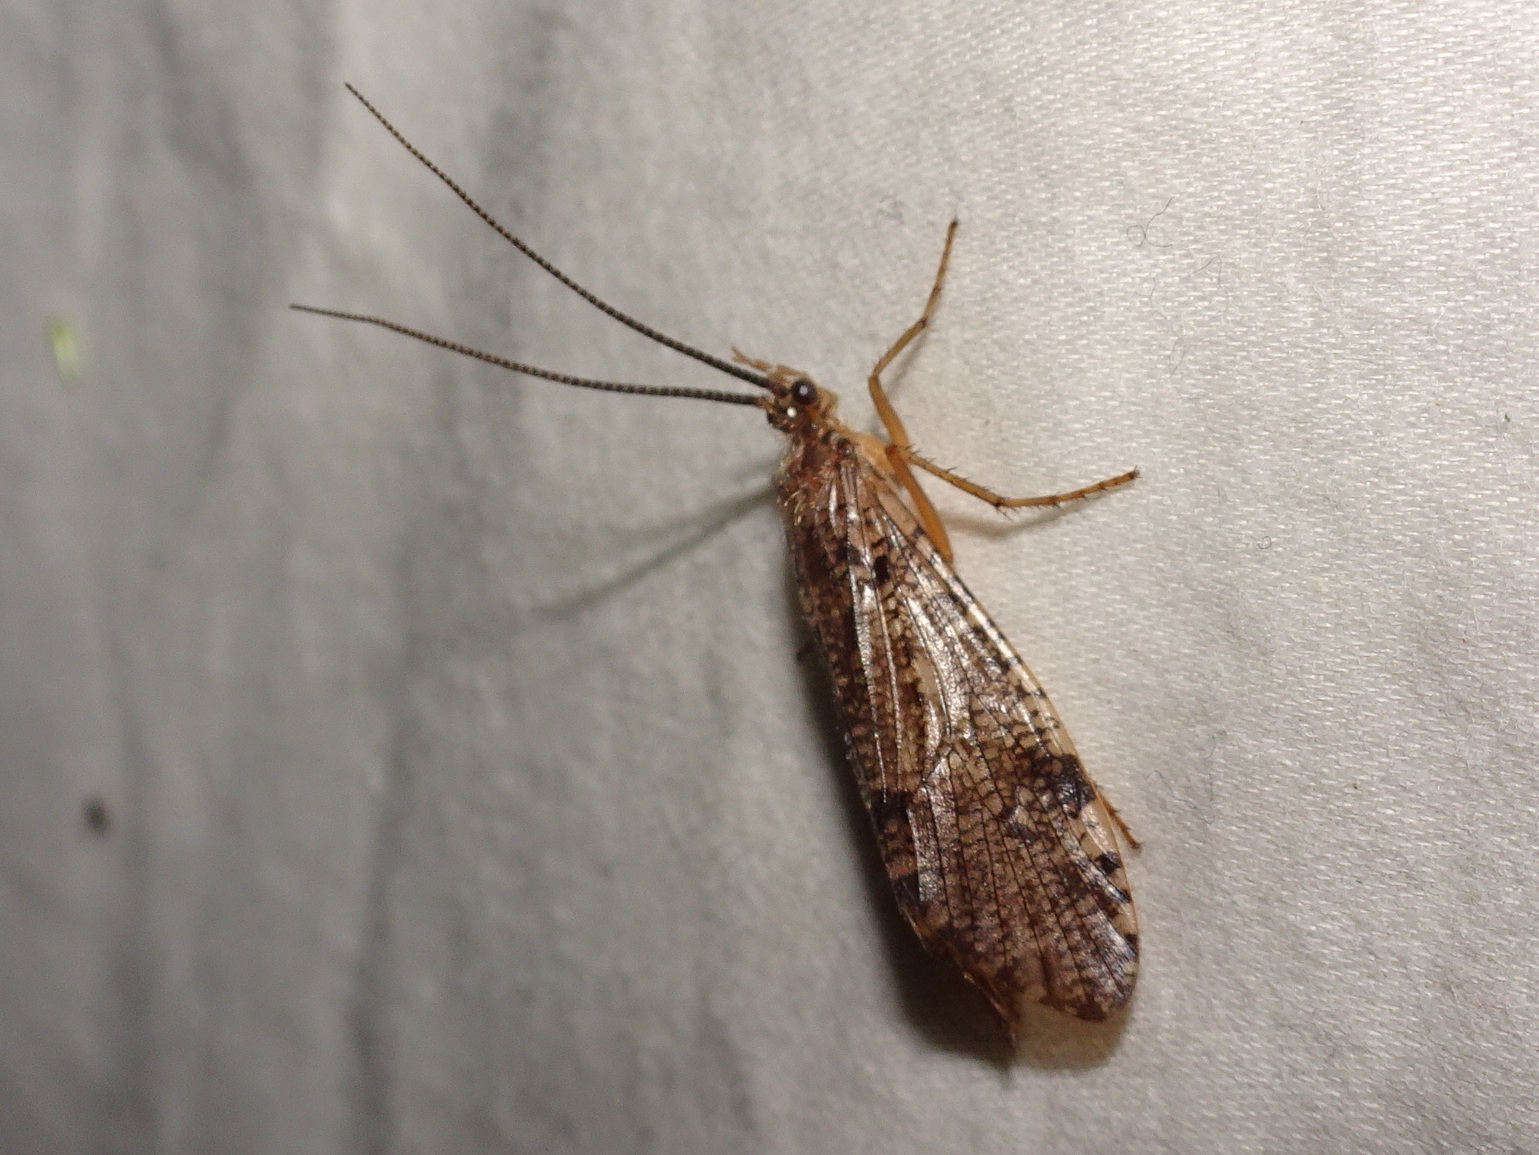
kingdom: Animalia
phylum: Arthropoda
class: Insecta
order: Trichoptera
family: Phryganeidae
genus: Banksiola
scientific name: Banksiola crotchi
